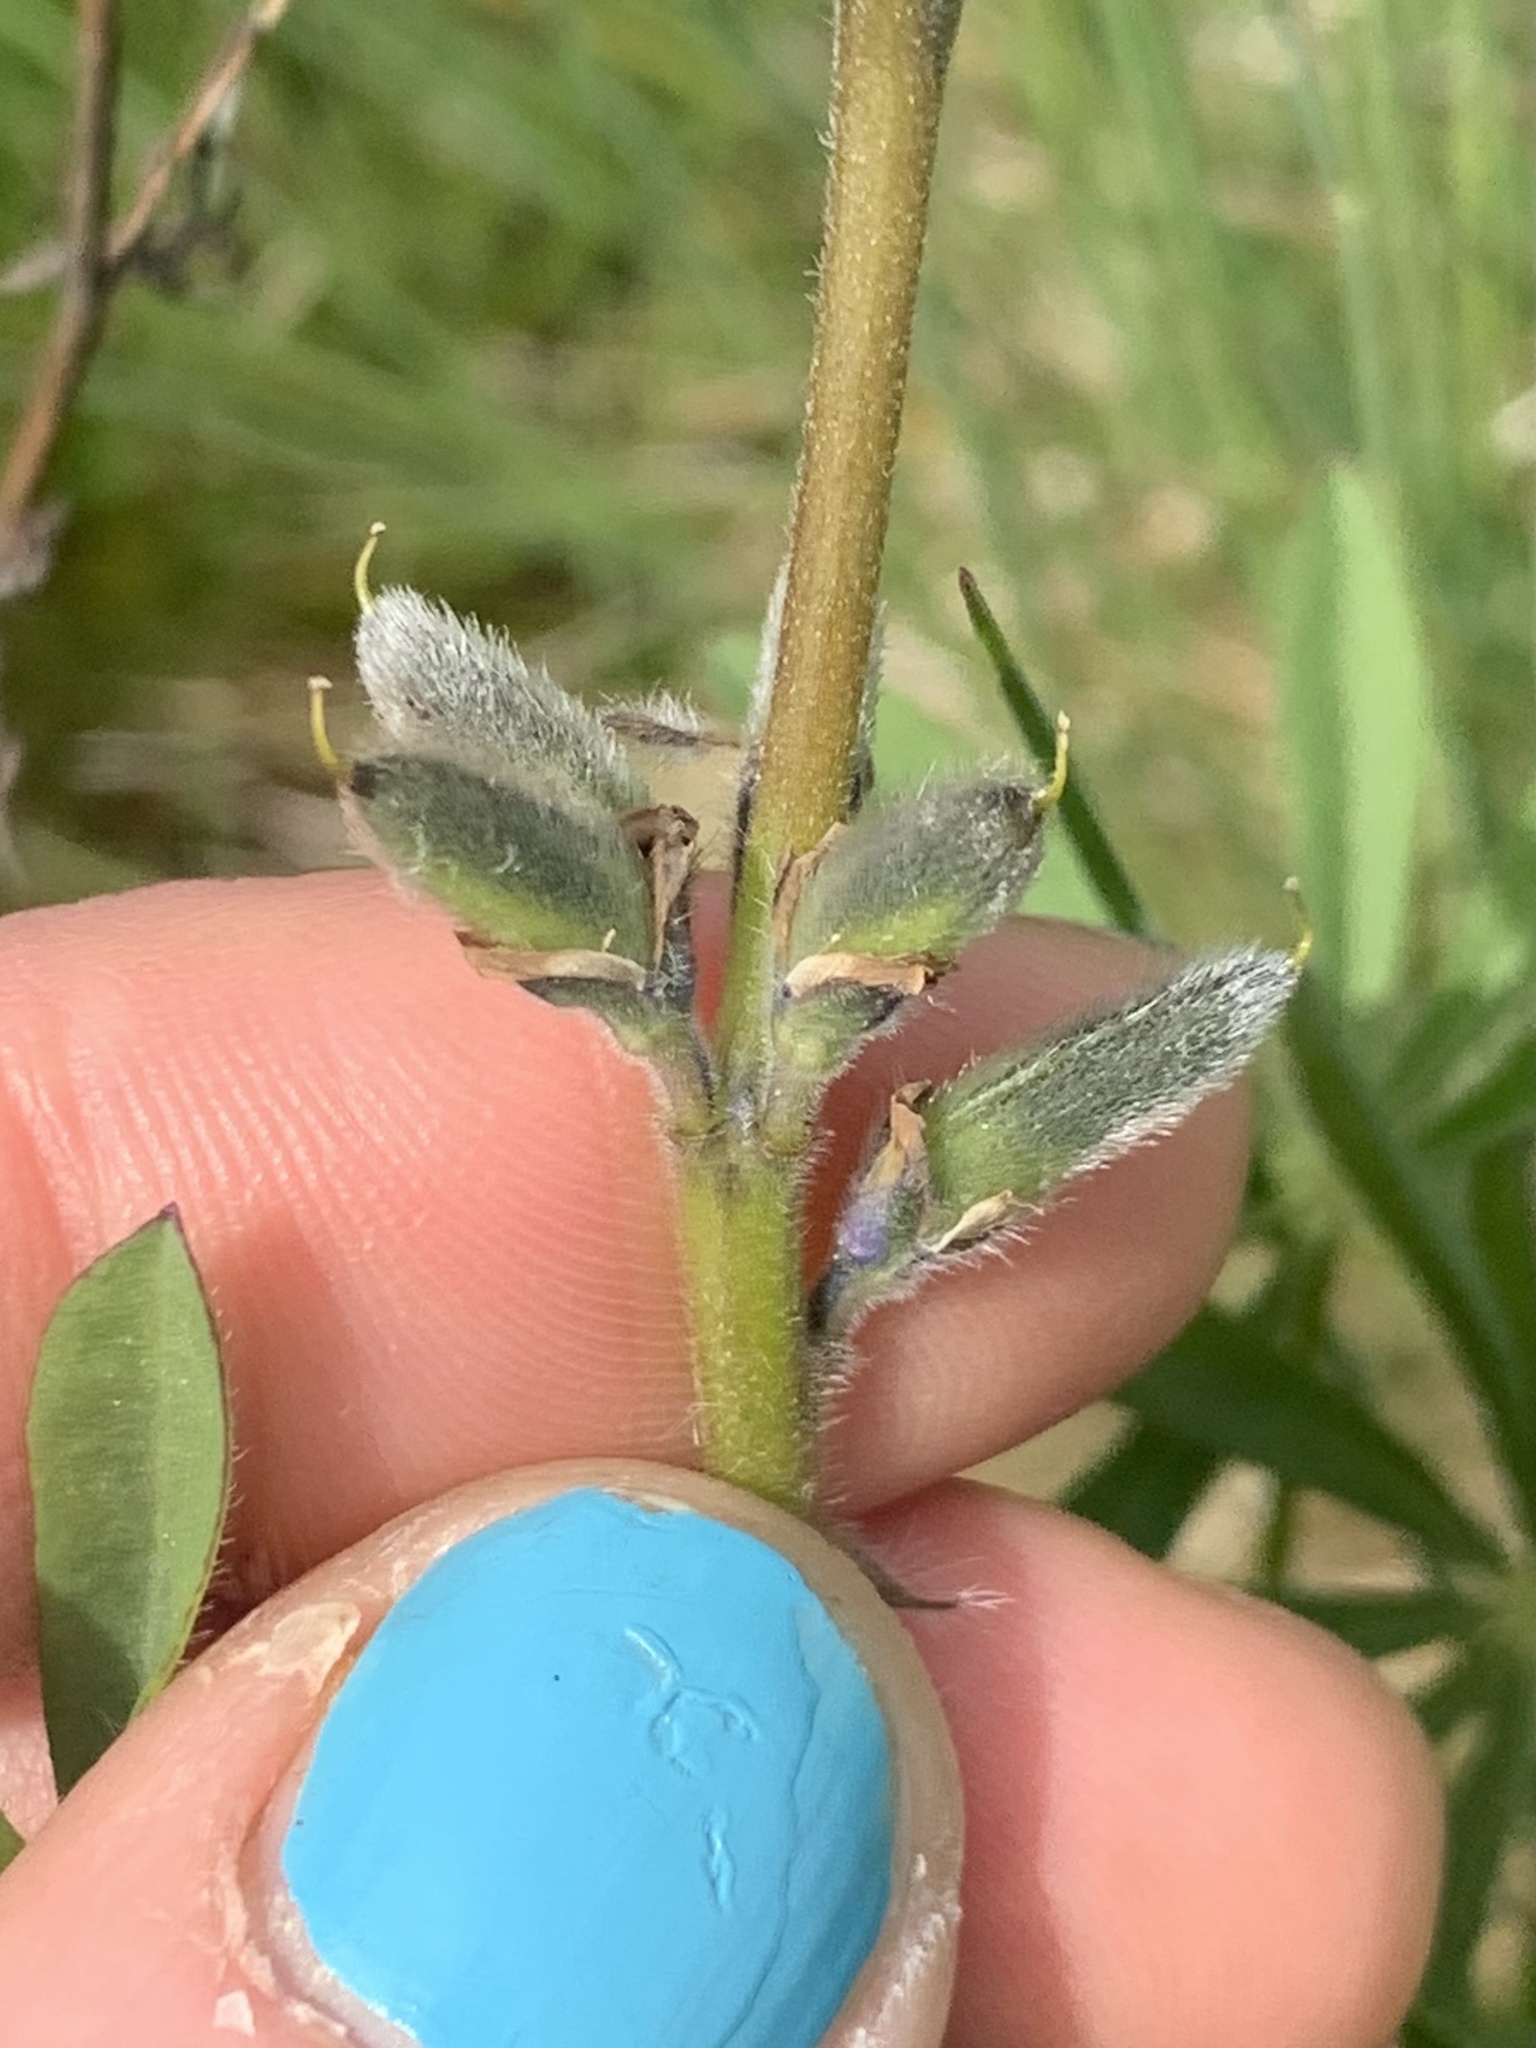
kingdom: Plantae
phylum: Tracheophyta
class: Magnoliopsida
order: Fabales
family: Fabaceae
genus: Lupinus
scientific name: Lupinus bicolor
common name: Miniature lupine
